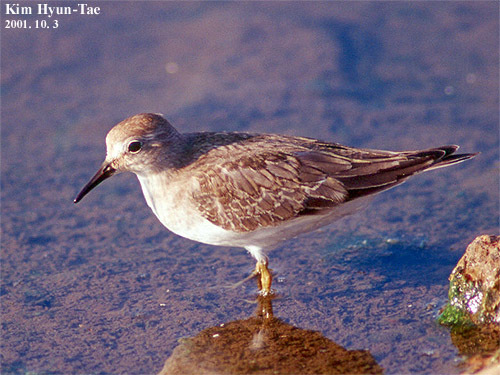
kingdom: Animalia
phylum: Chordata
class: Aves
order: Charadriiformes
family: Scolopacidae
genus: Calidris
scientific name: Calidris temminckii
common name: Temminck's stint
